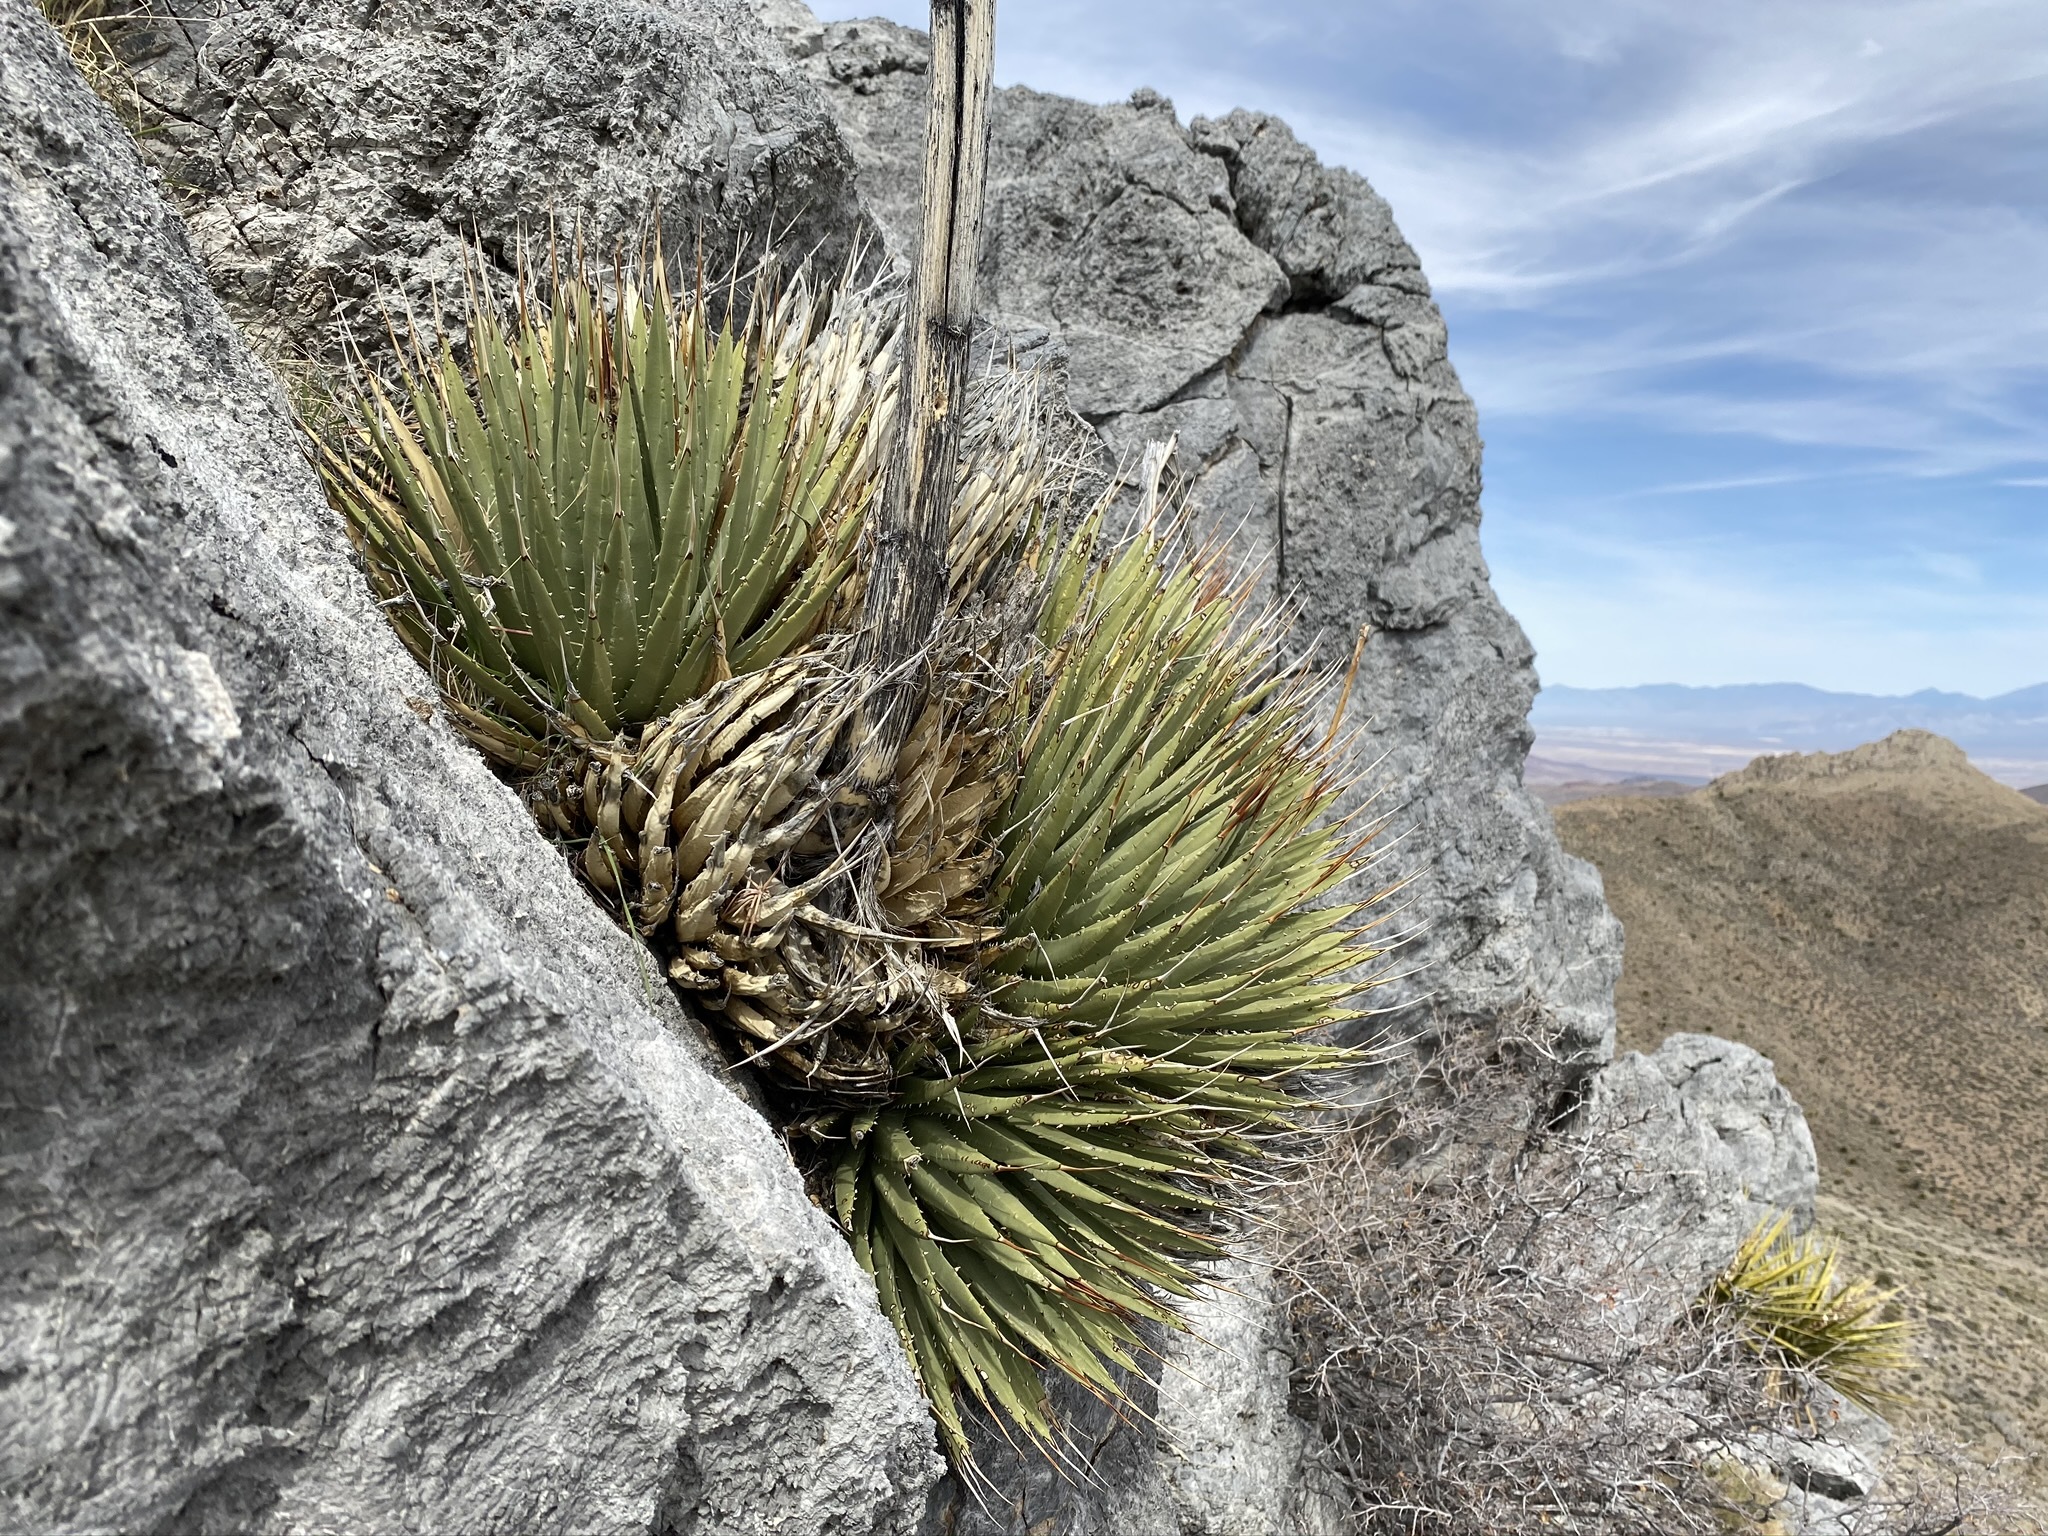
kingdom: Plantae
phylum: Tracheophyta
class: Liliopsida
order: Asparagales
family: Asparagaceae
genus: Agave
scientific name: Agave utahensis
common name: Utah agave
